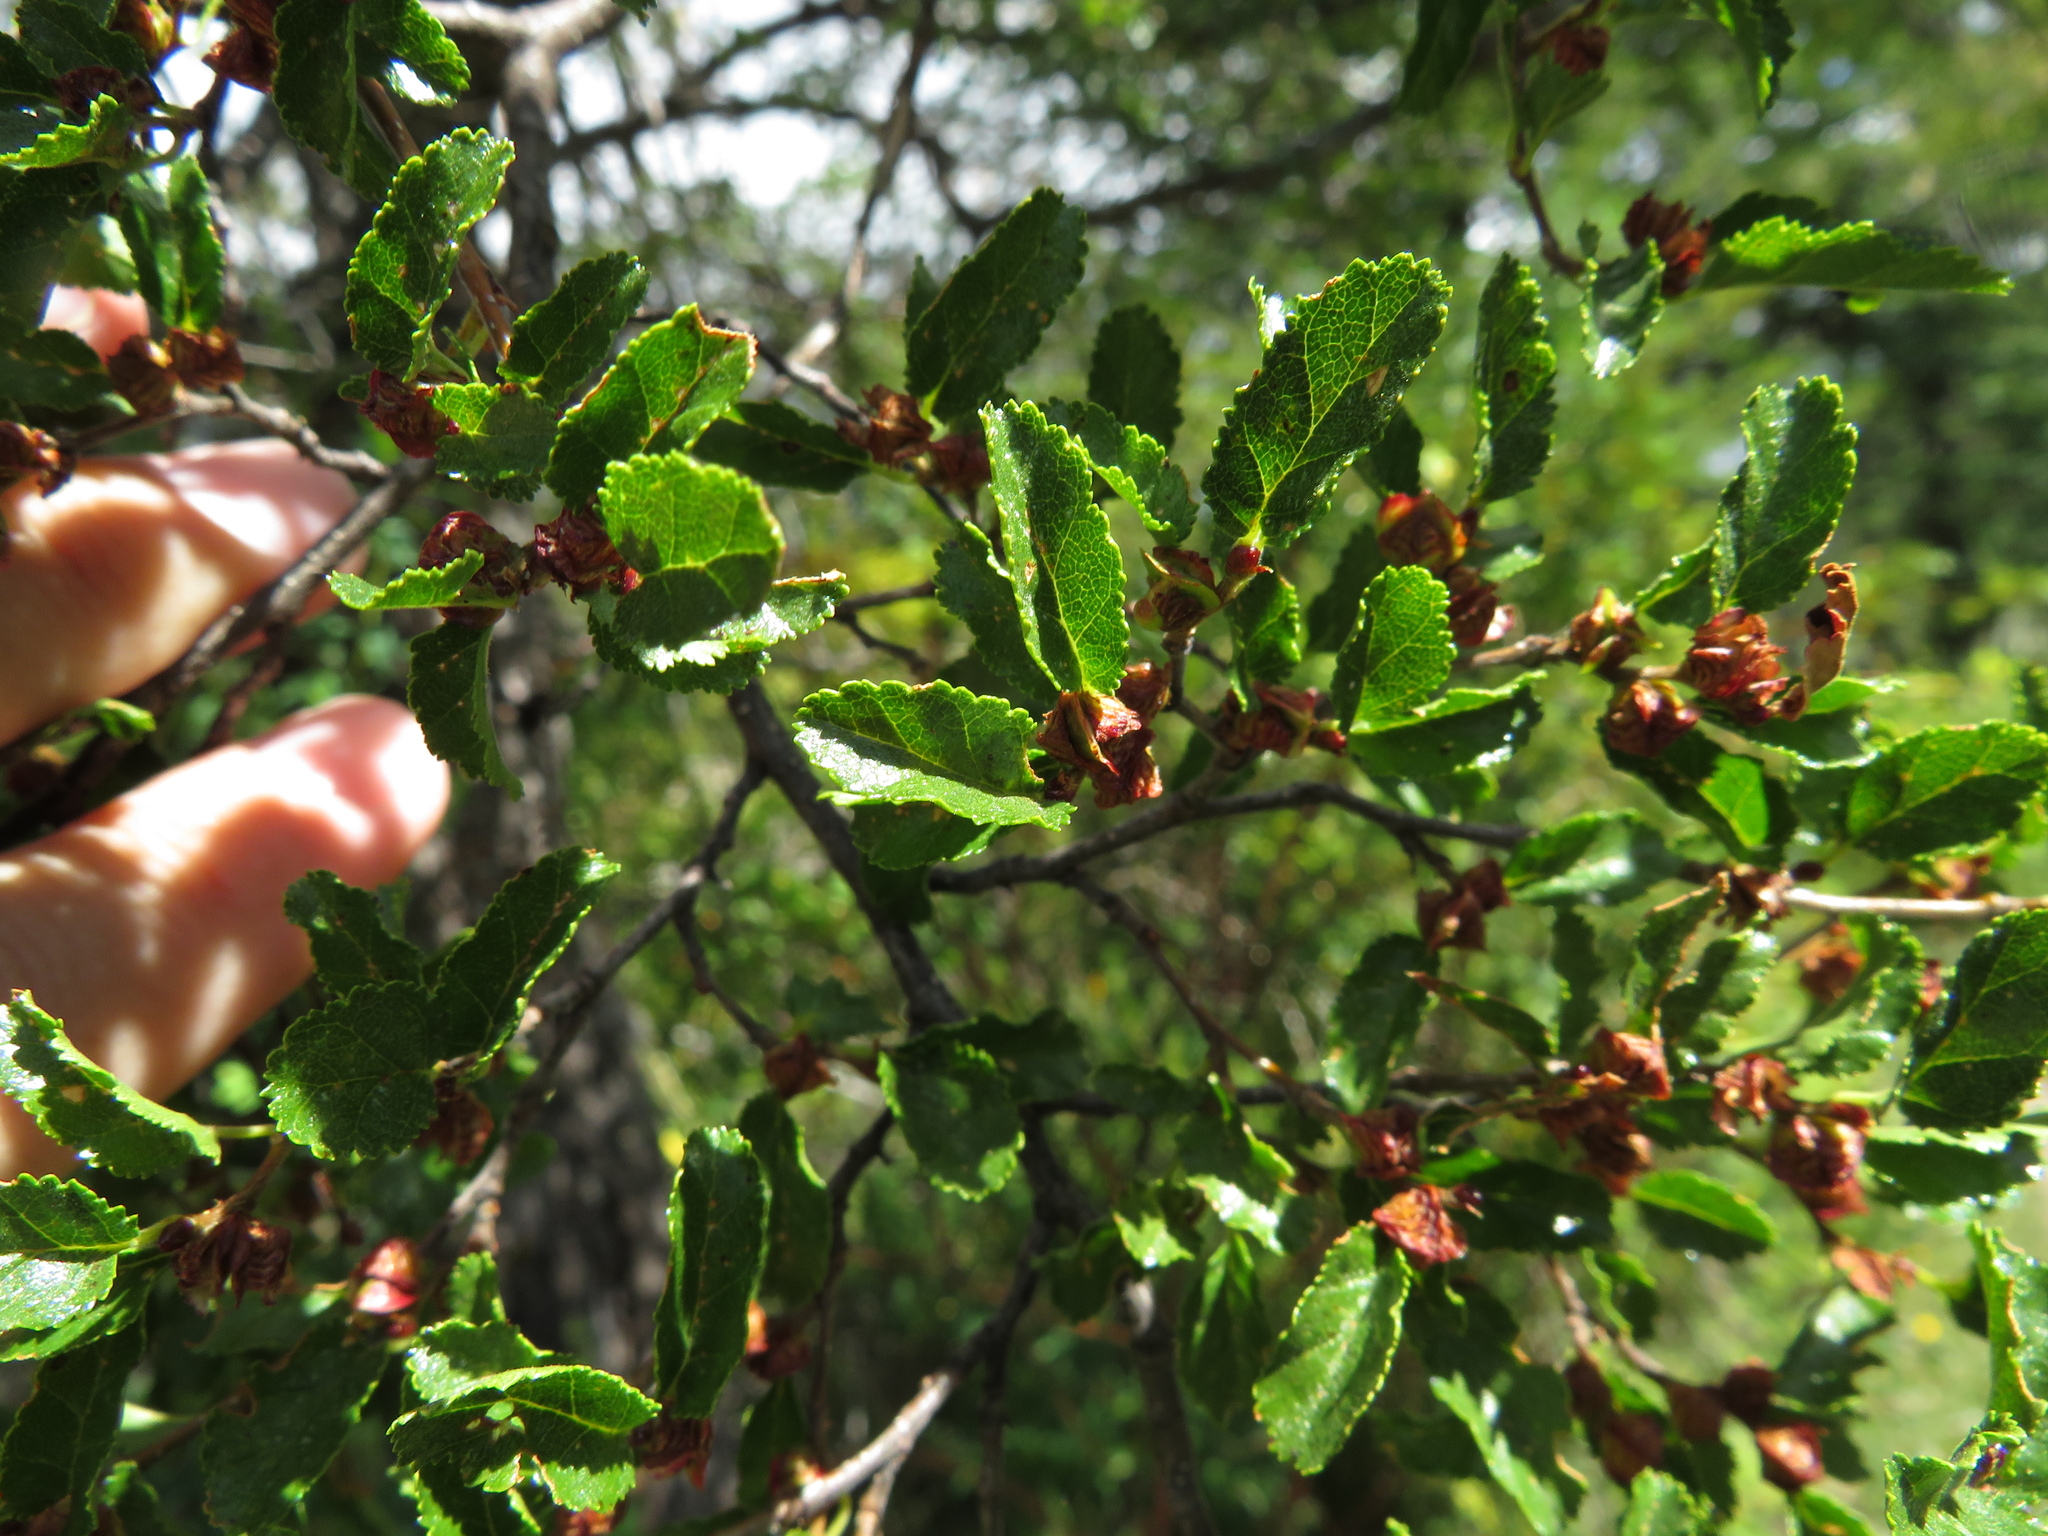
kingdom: Plantae
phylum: Tracheophyta
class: Magnoliopsida
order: Fagales
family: Nothofagaceae
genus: Nothofagus
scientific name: Nothofagus antarctica
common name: Antarctic beech
